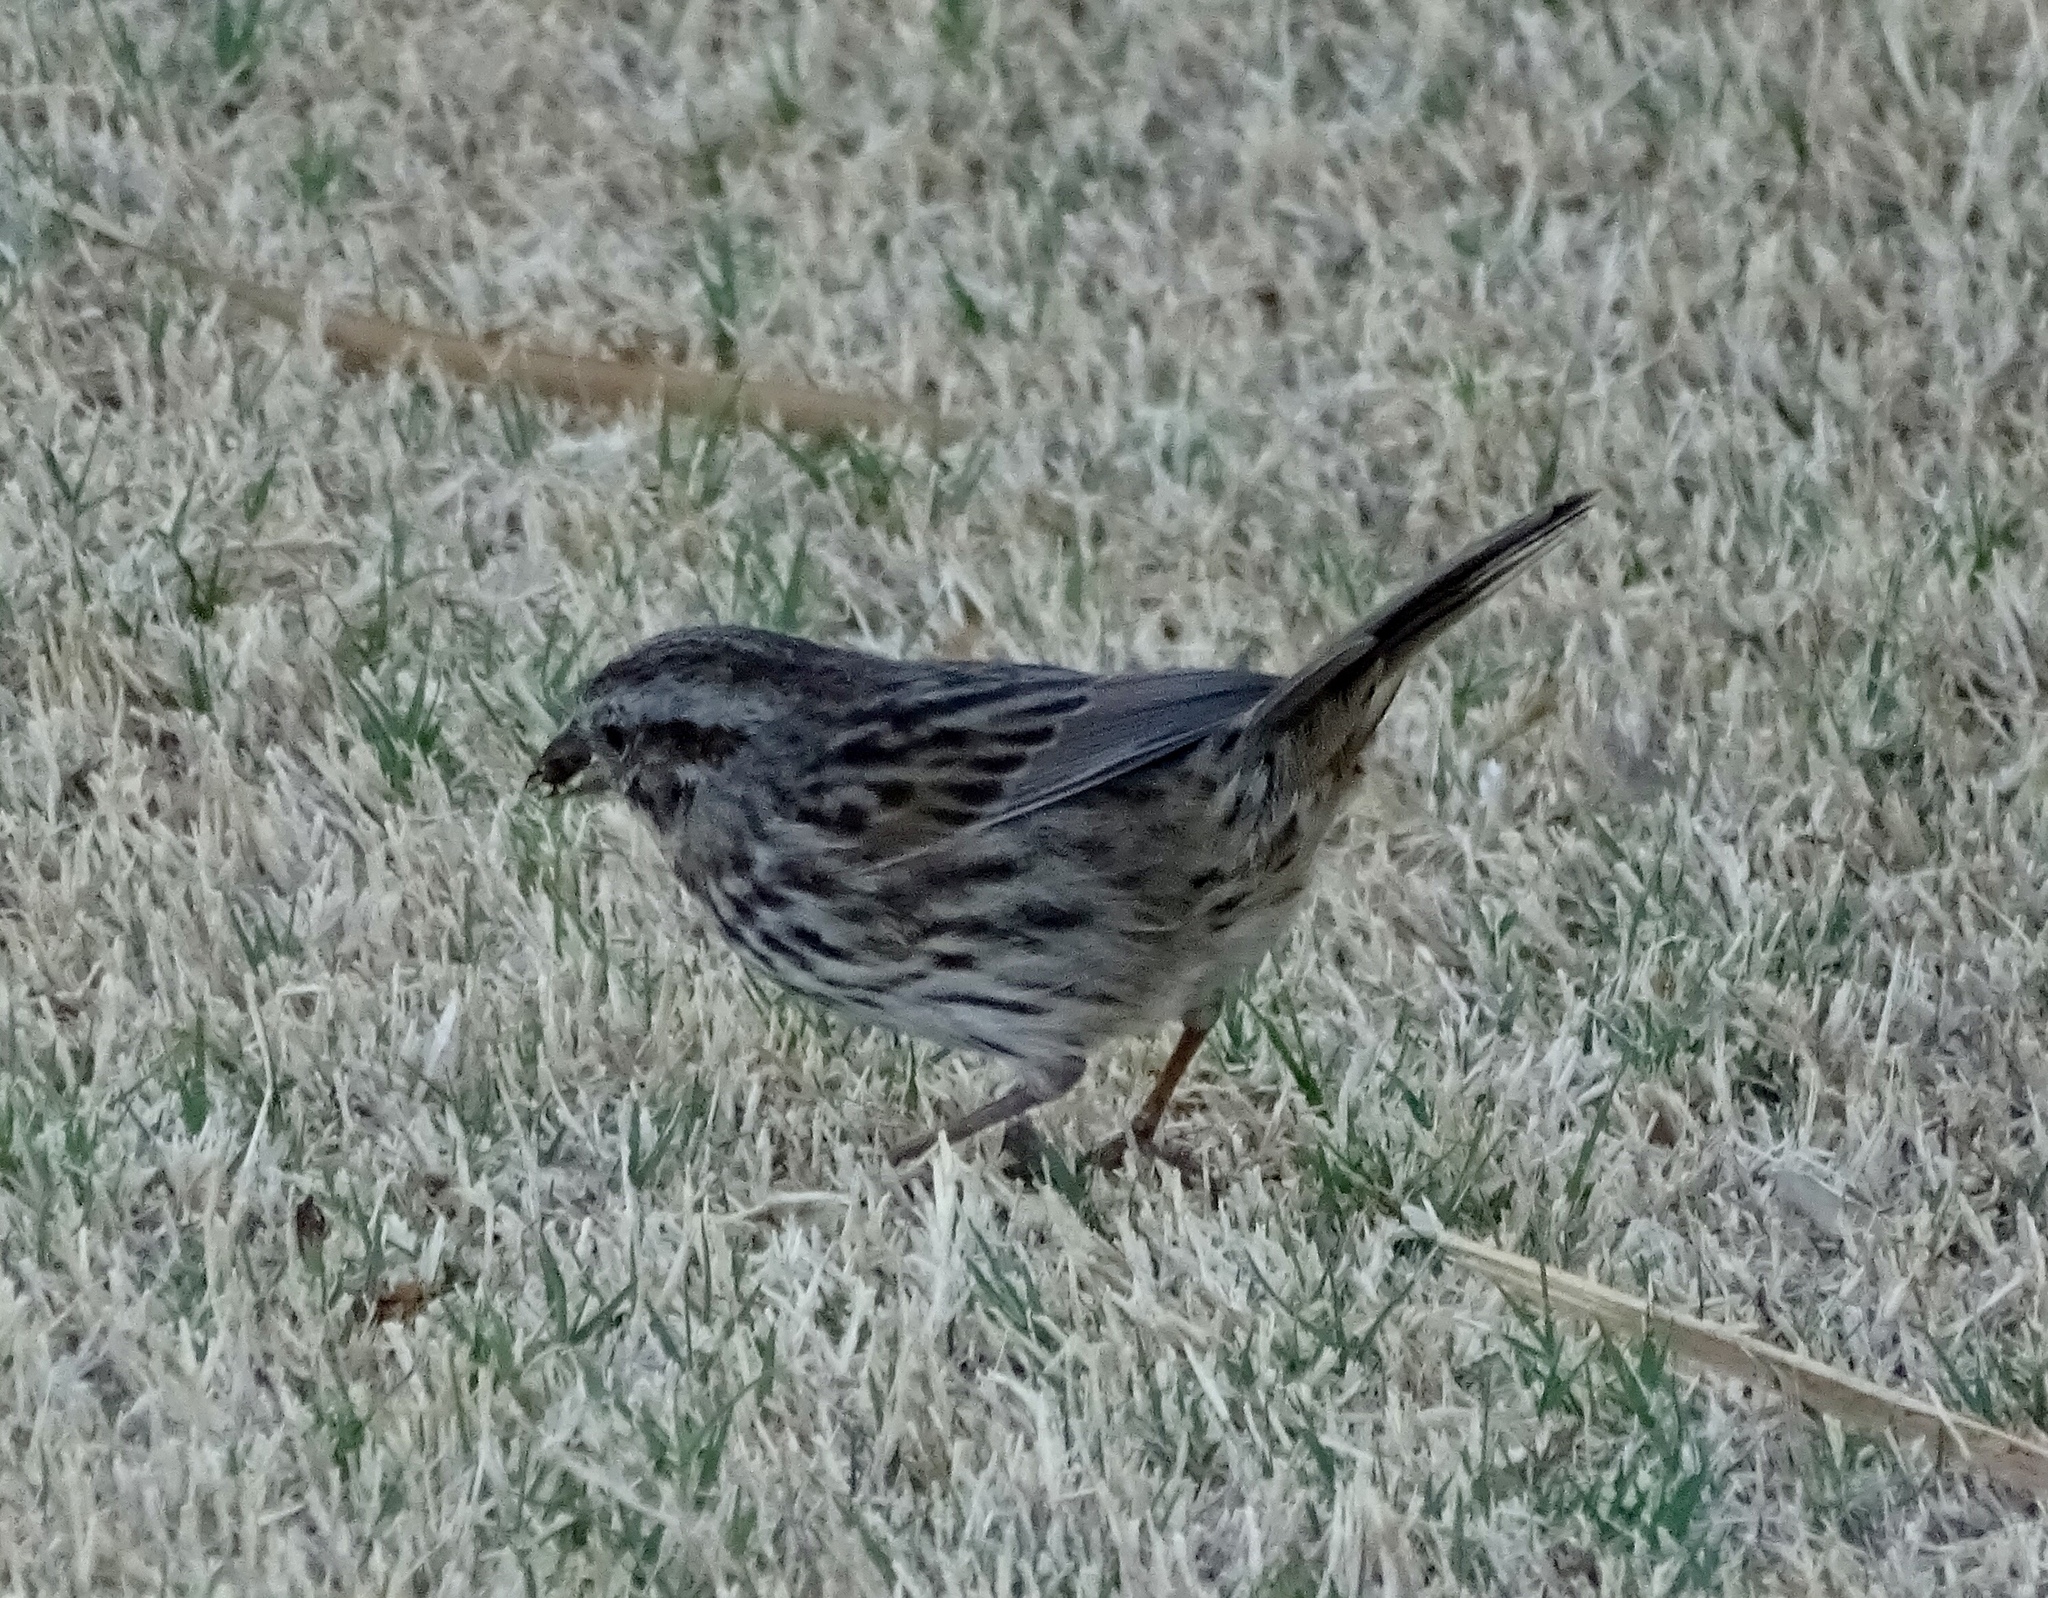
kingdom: Animalia
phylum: Chordata
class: Aves
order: Passeriformes
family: Passerellidae
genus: Melospiza
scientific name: Melospiza melodia
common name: Song sparrow
